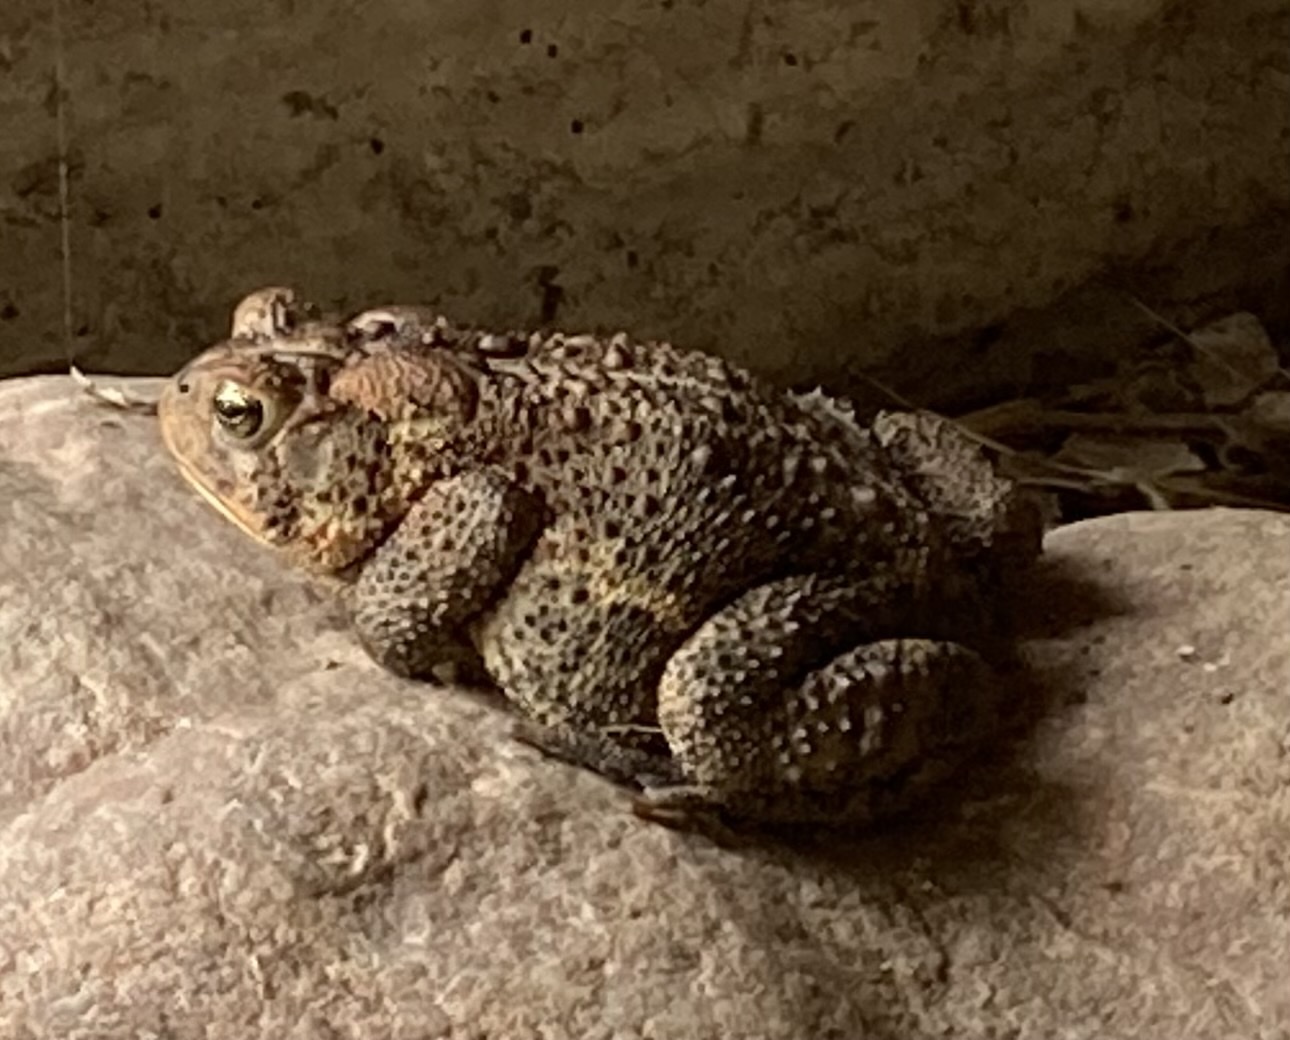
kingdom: Animalia
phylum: Chordata
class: Amphibia
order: Anura
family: Bufonidae
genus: Anaxyrus
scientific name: Anaxyrus americanus
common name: American toad
